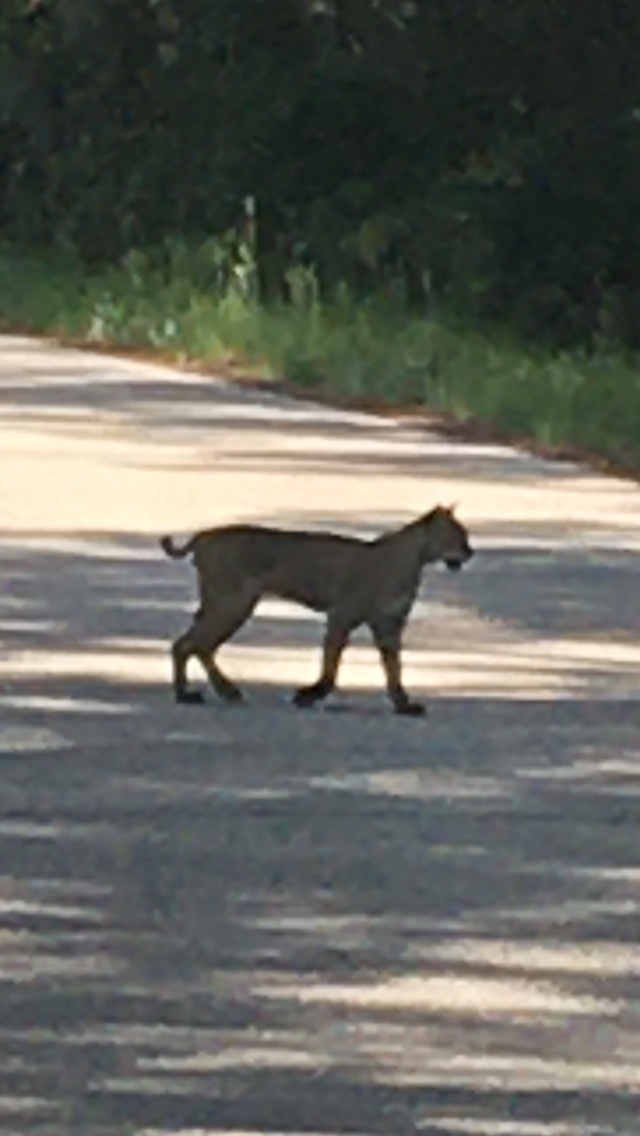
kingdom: Animalia
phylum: Chordata
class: Mammalia
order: Carnivora
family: Felidae
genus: Lynx
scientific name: Lynx rufus
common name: Bobcat
